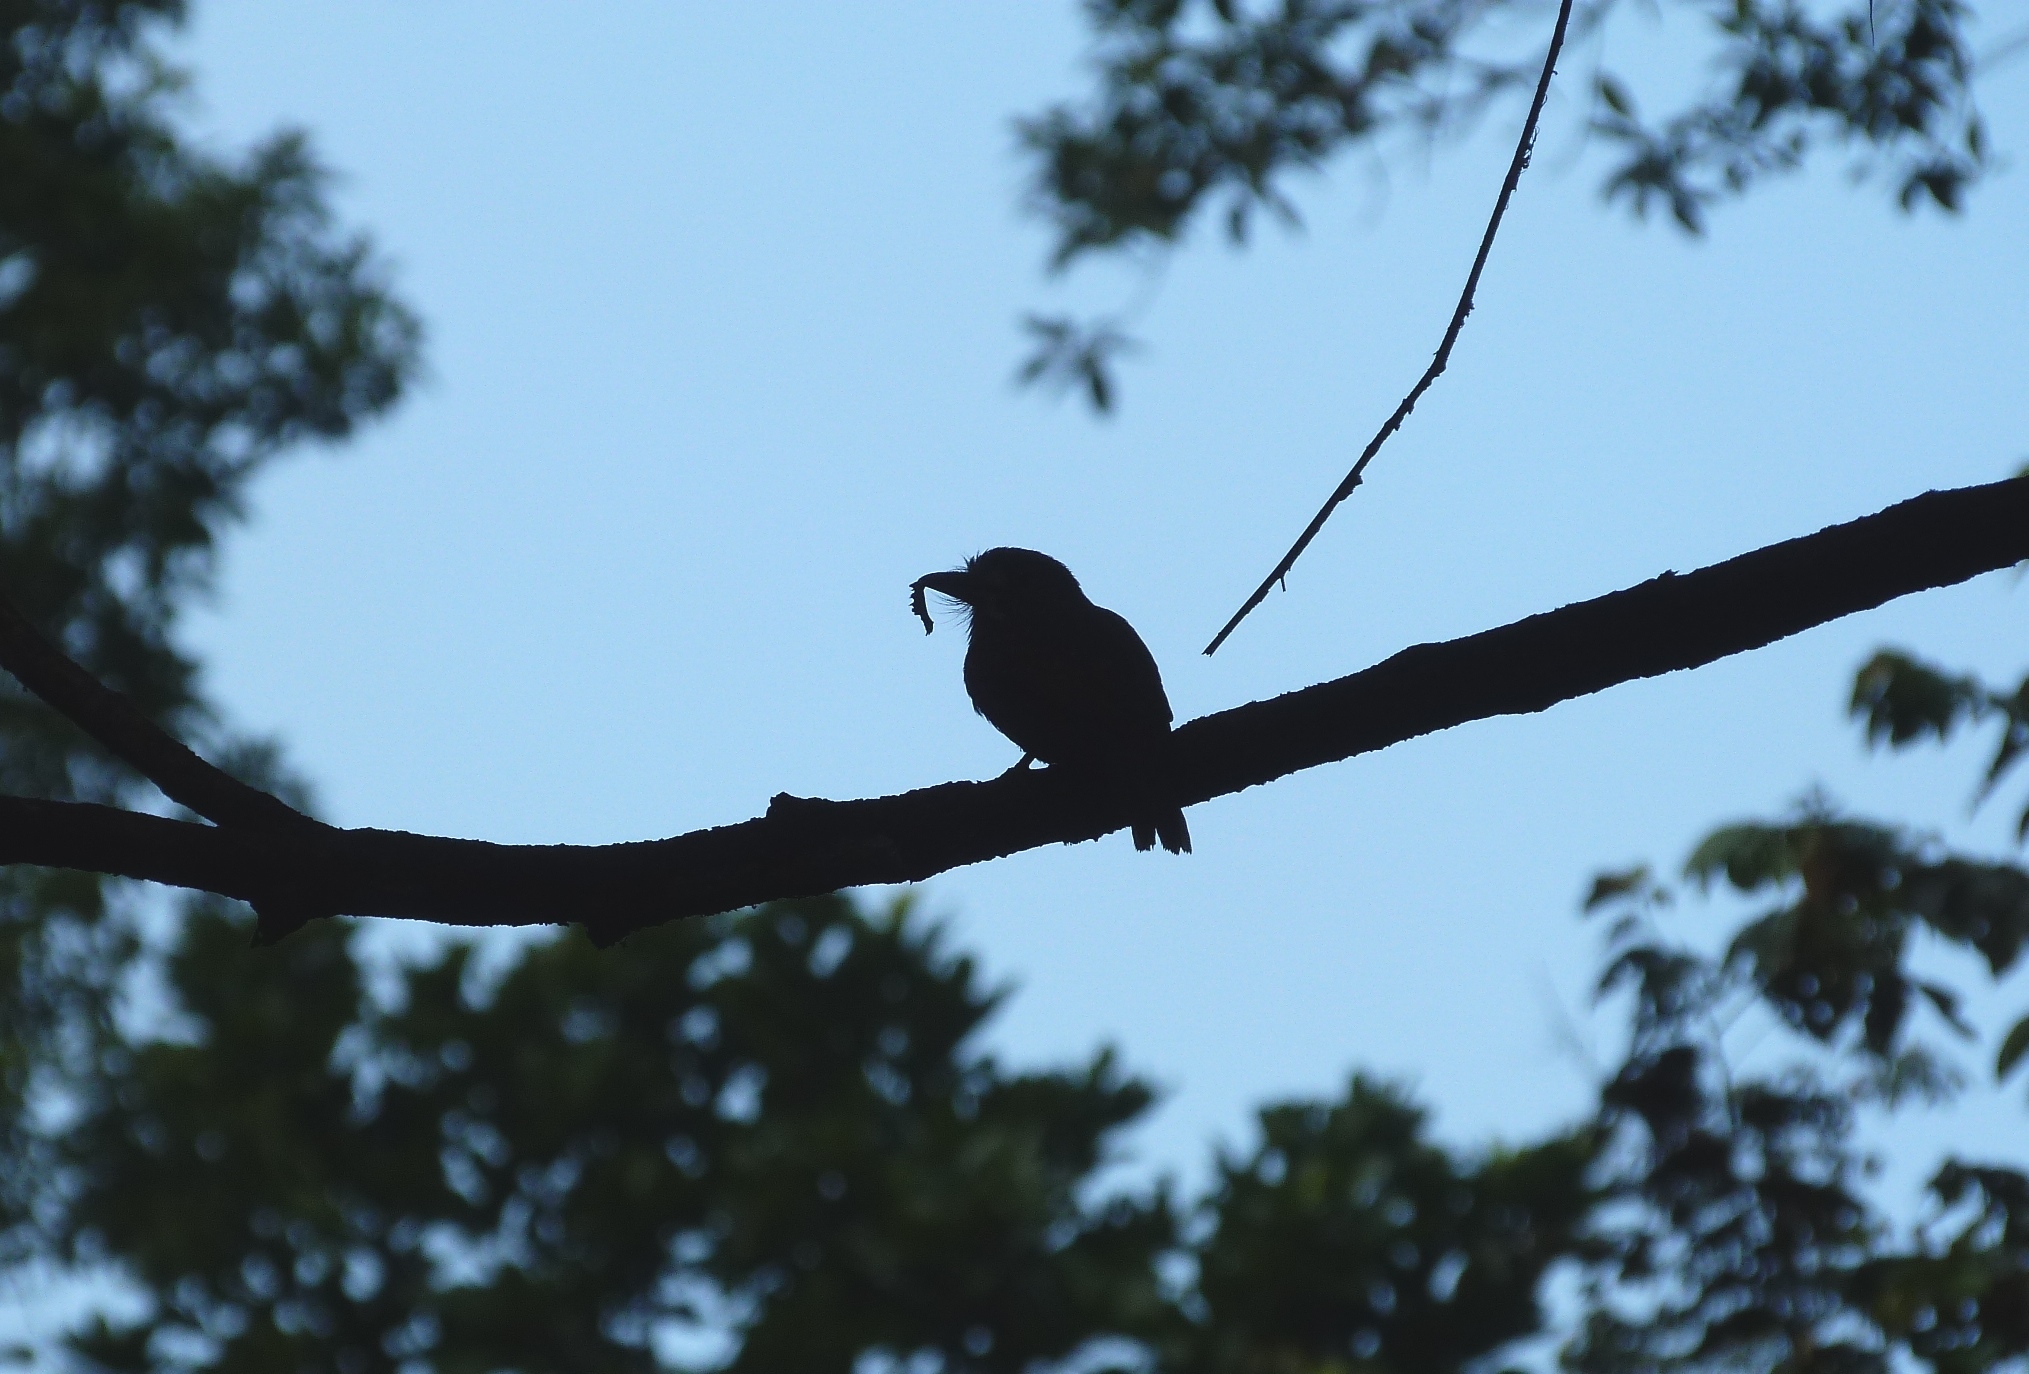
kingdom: Animalia
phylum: Chordata
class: Aves
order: Piciformes
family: Bucconidae
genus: Malacoptila
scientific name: Malacoptila panamensis
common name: White-whiskered puffbird
